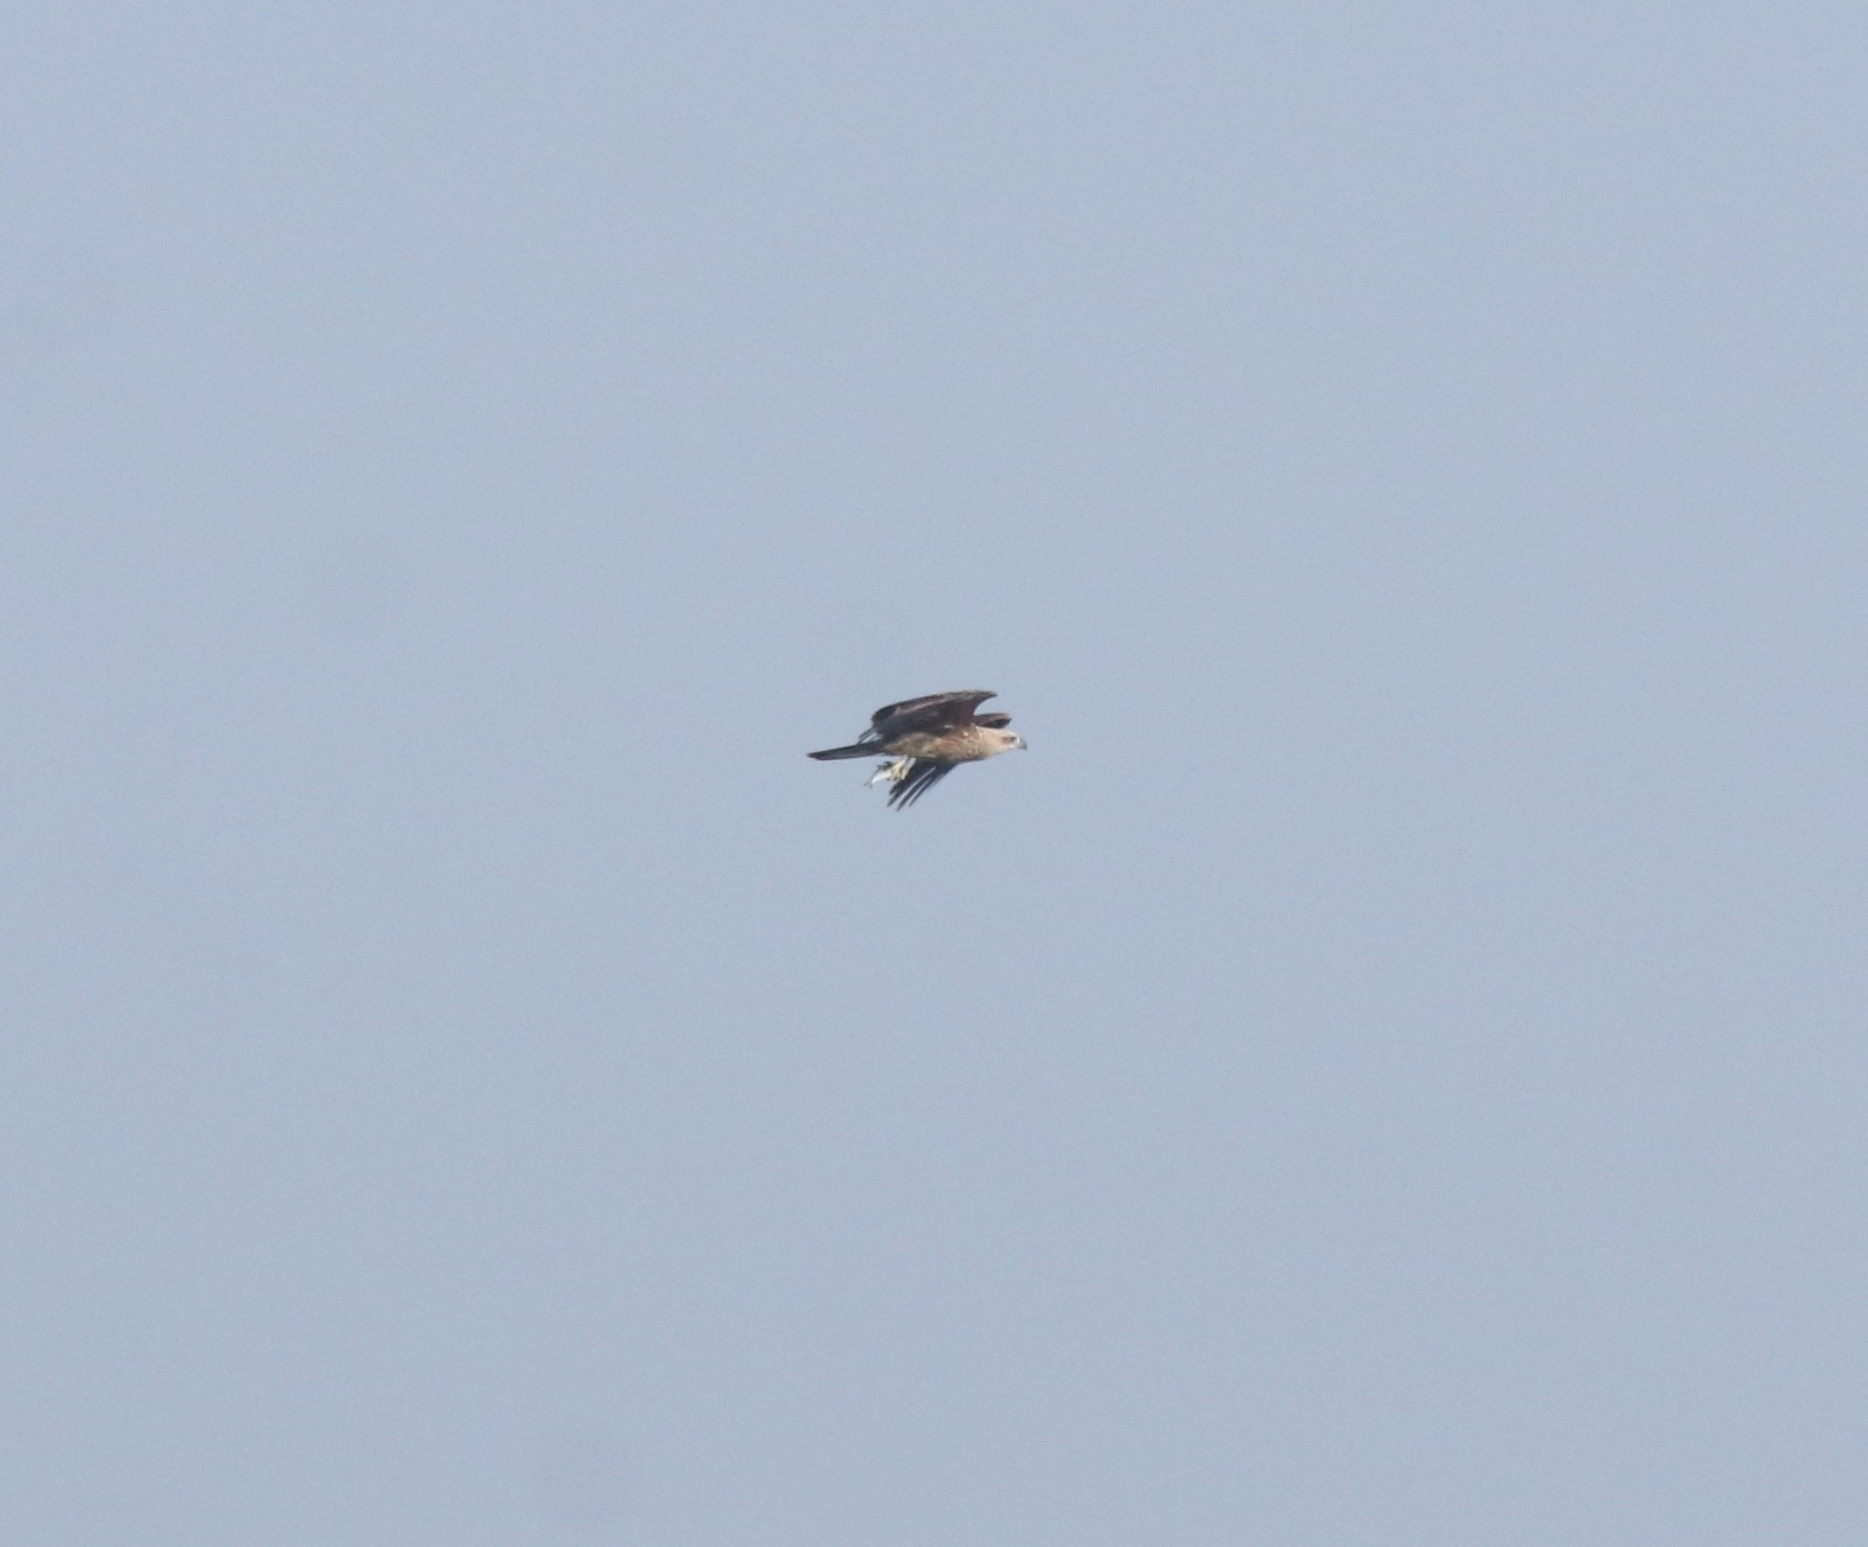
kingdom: Animalia
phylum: Chordata
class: Aves
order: Accipitriformes
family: Accipitridae
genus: Haliastur
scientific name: Haliastur indus
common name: Brahminy kite
